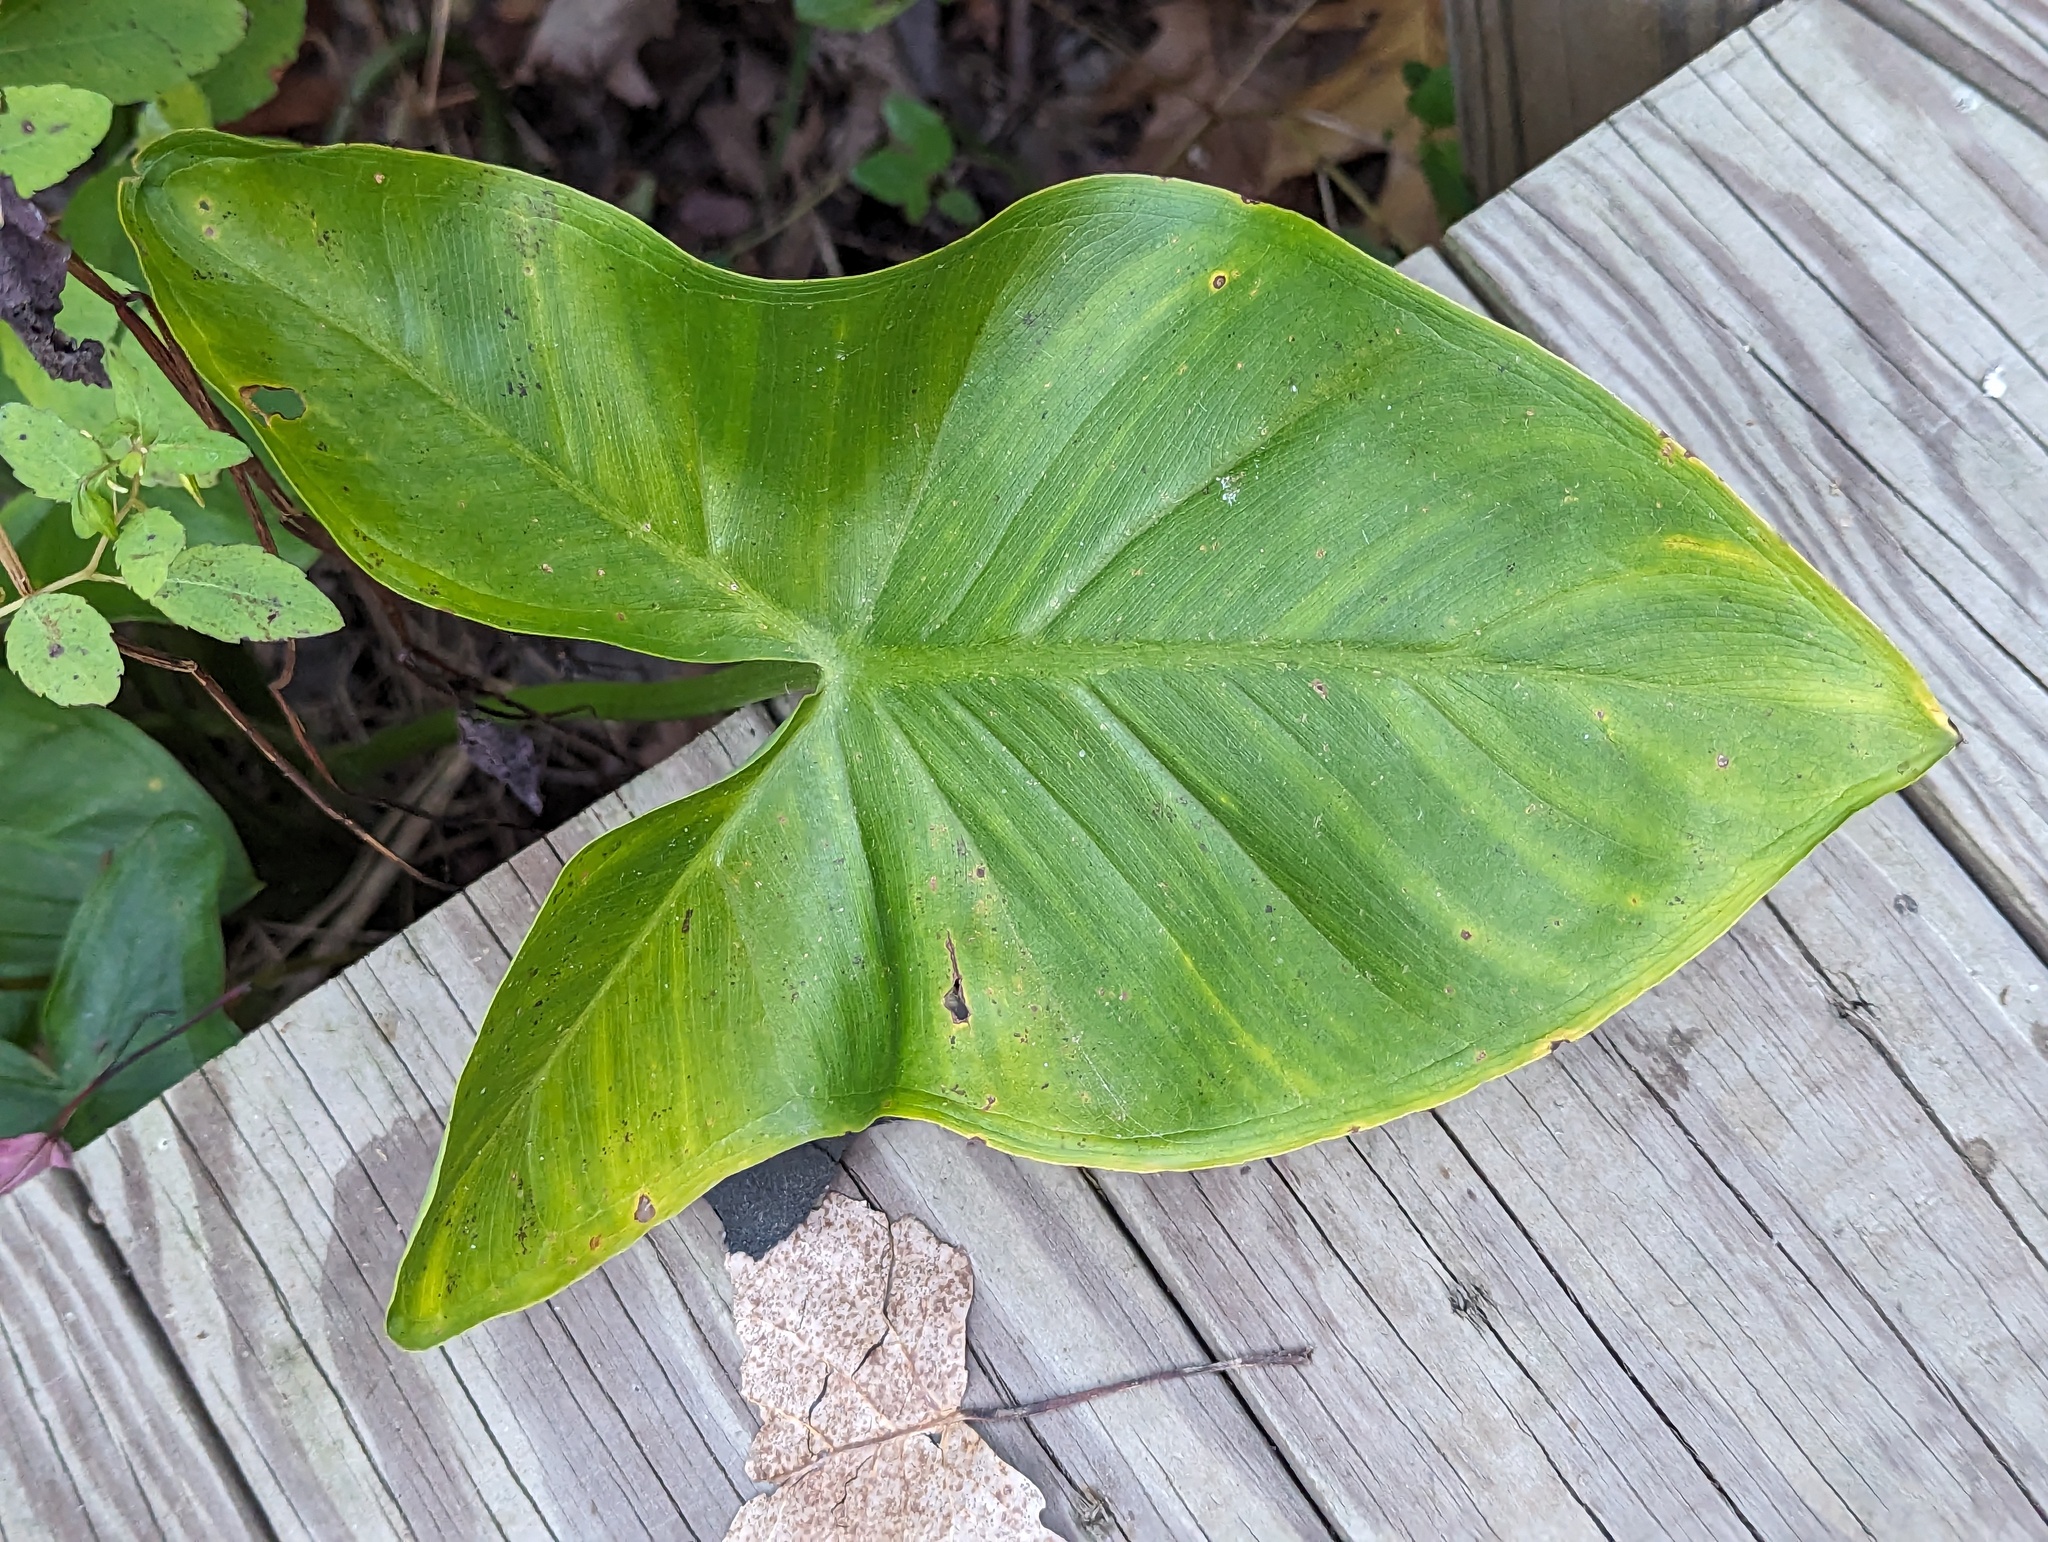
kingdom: Plantae
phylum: Tracheophyta
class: Liliopsida
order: Alismatales
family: Araceae
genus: Peltandra
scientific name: Peltandra virginica
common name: Arrow arum
